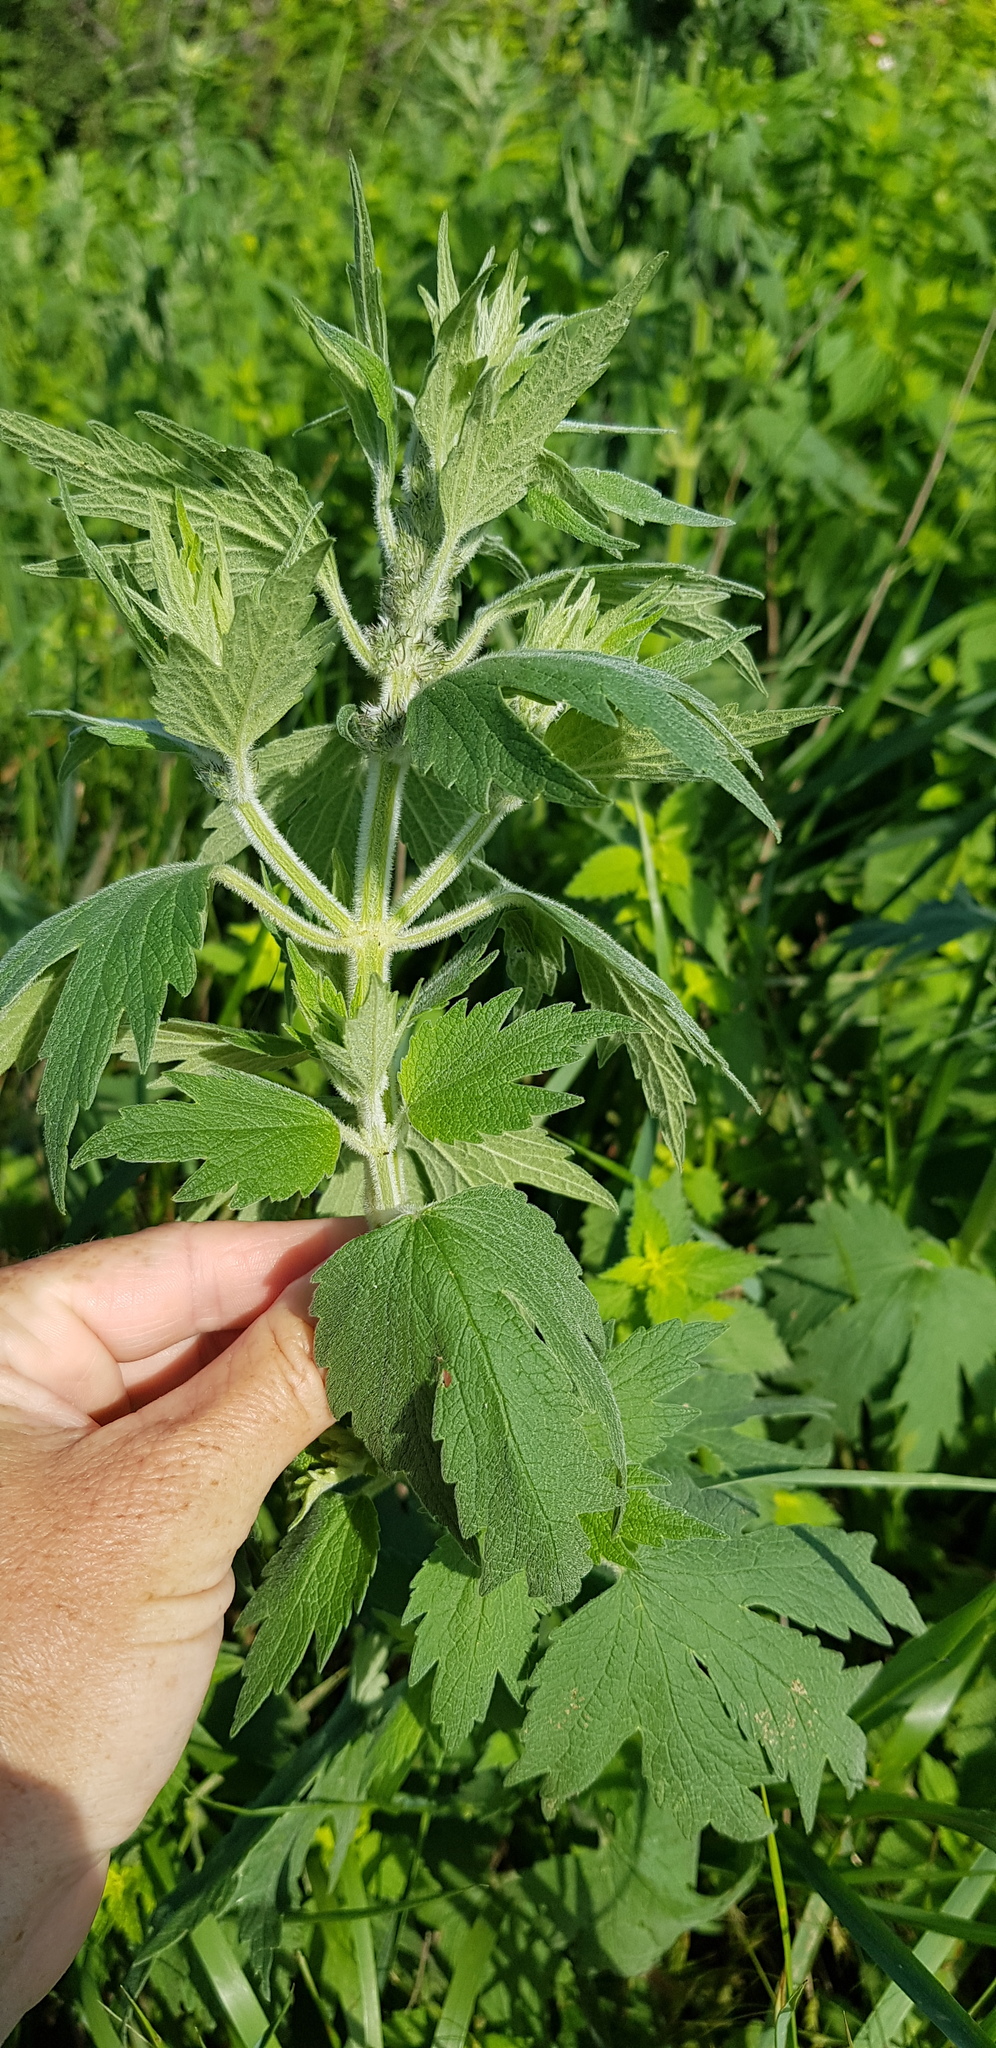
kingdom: Plantae
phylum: Tracheophyta
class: Magnoliopsida
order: Lamiales
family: Lamiaceae
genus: Leonurus
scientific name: Leonurus quinquelobatus
